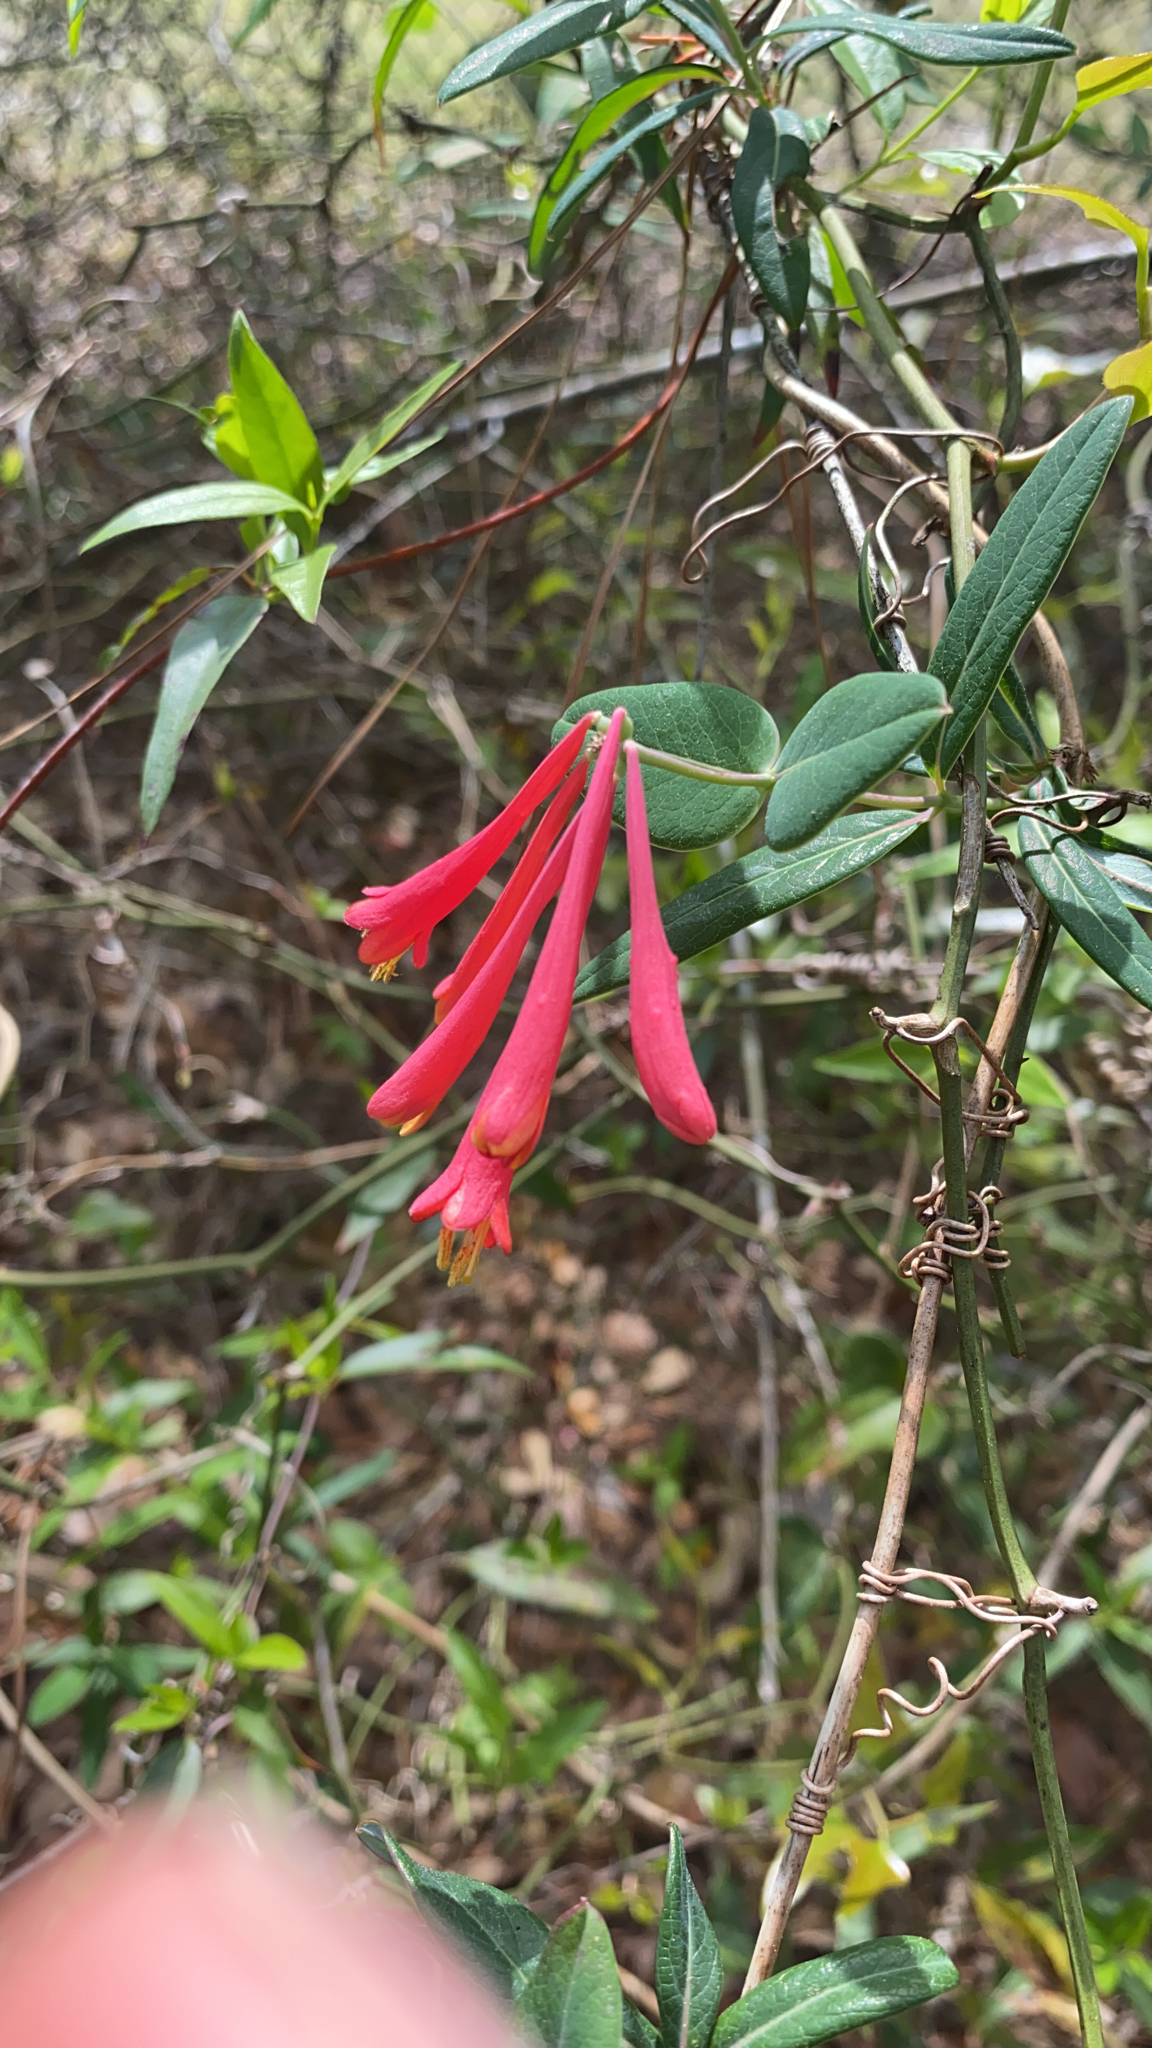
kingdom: Plantae
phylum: Tracheophyta
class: Magnoliopsida
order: Dipsacales
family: Caprifoliaceae
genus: Lonicera
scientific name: Lonicera sempervirens
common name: Coral honeysuckle
